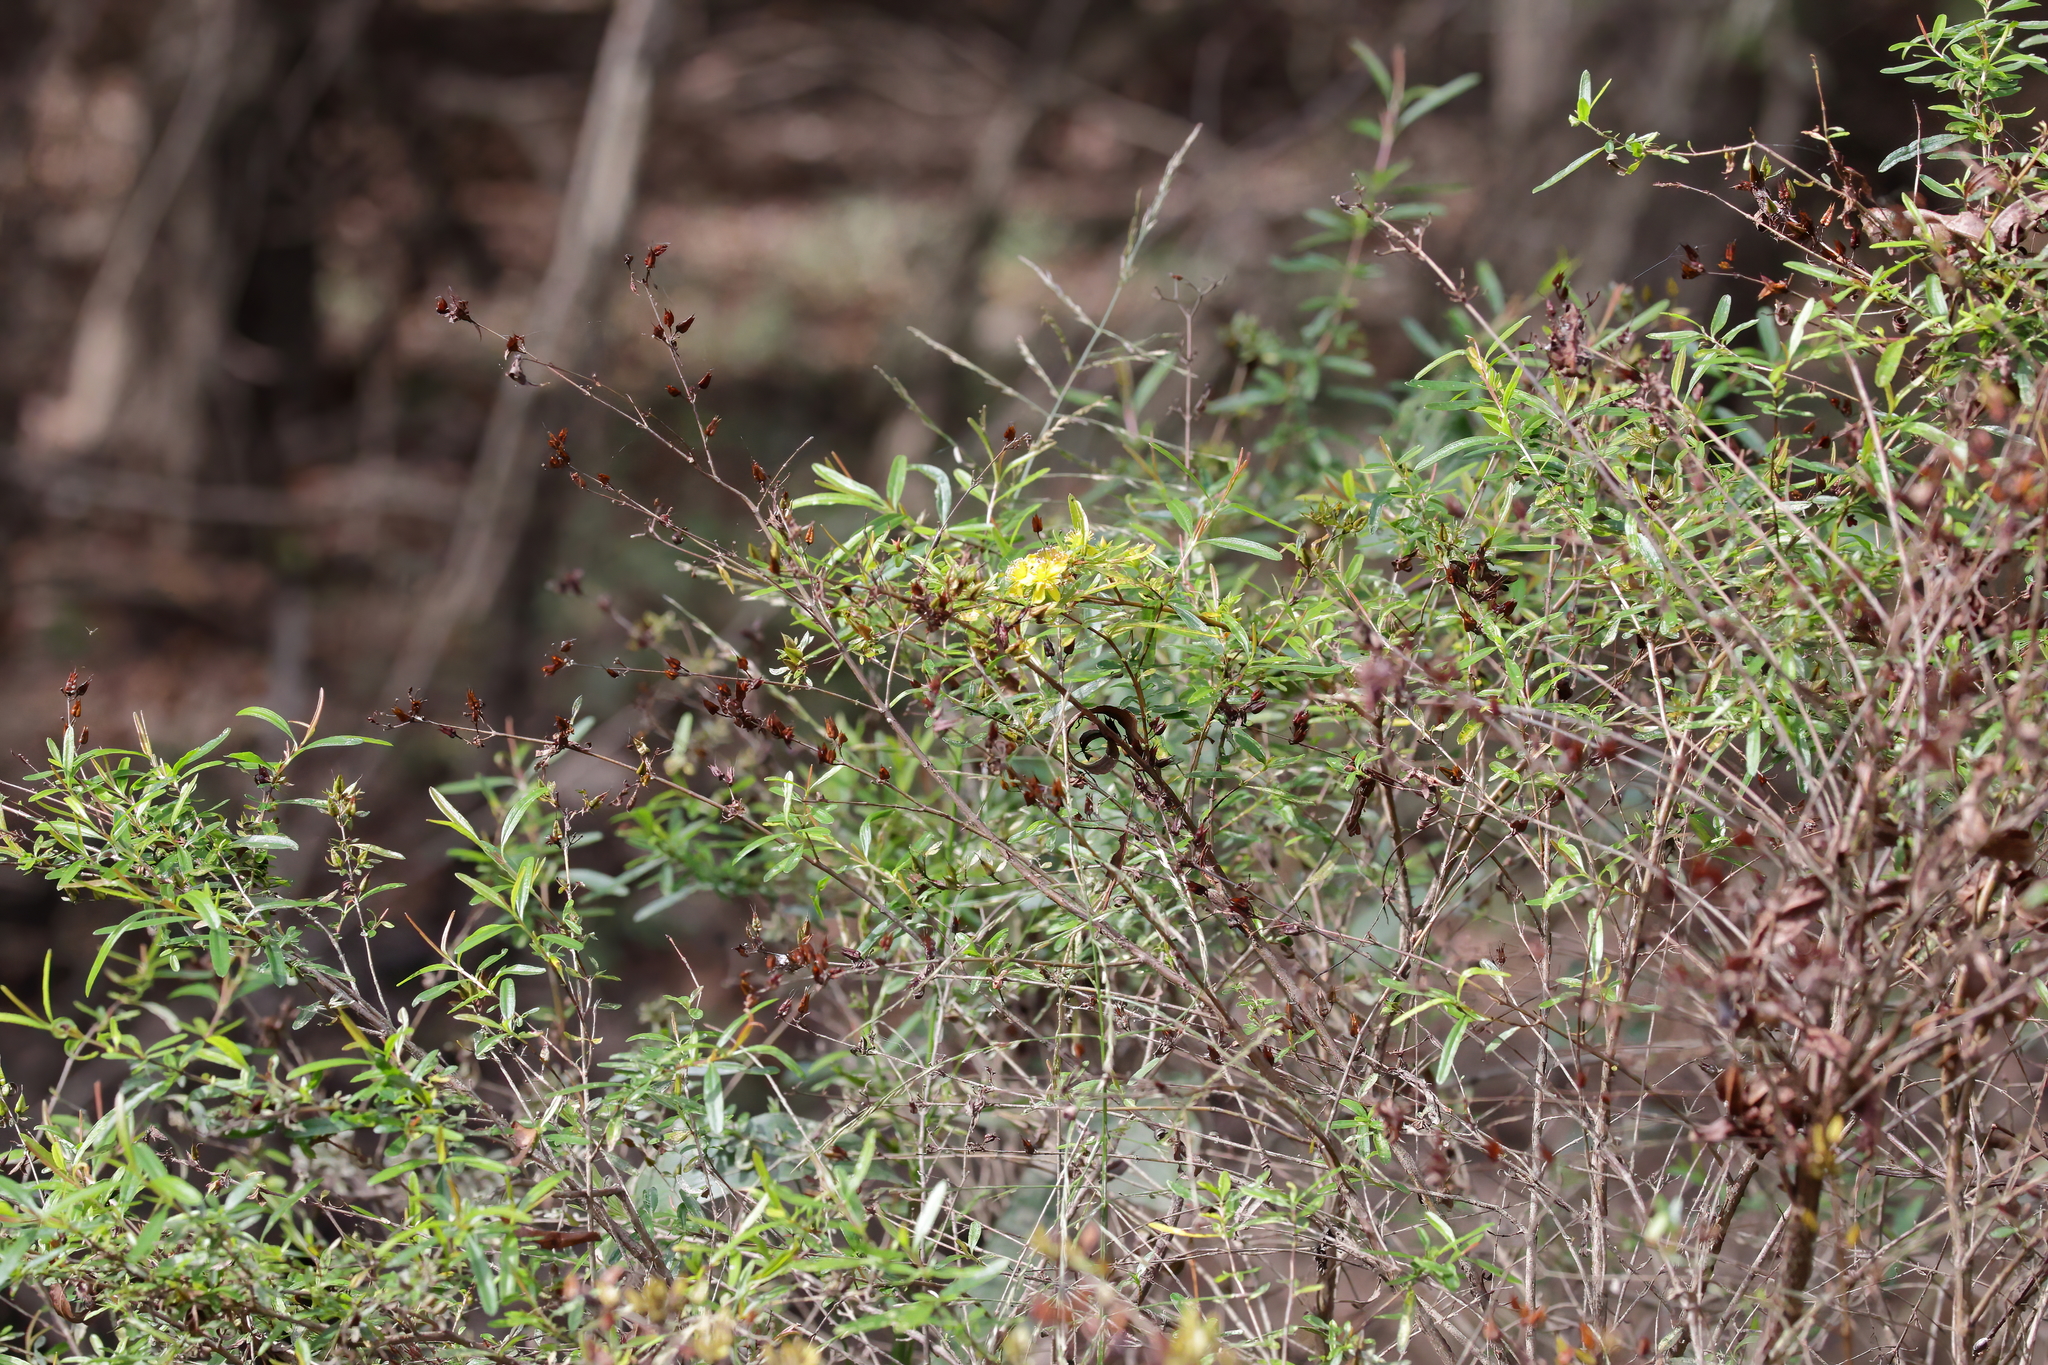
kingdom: Plantae
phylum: Tracheophyta
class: Magnoliopsida
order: Malpighiales
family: Hypericaceae
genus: Hypericum
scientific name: Hypericum galioides
